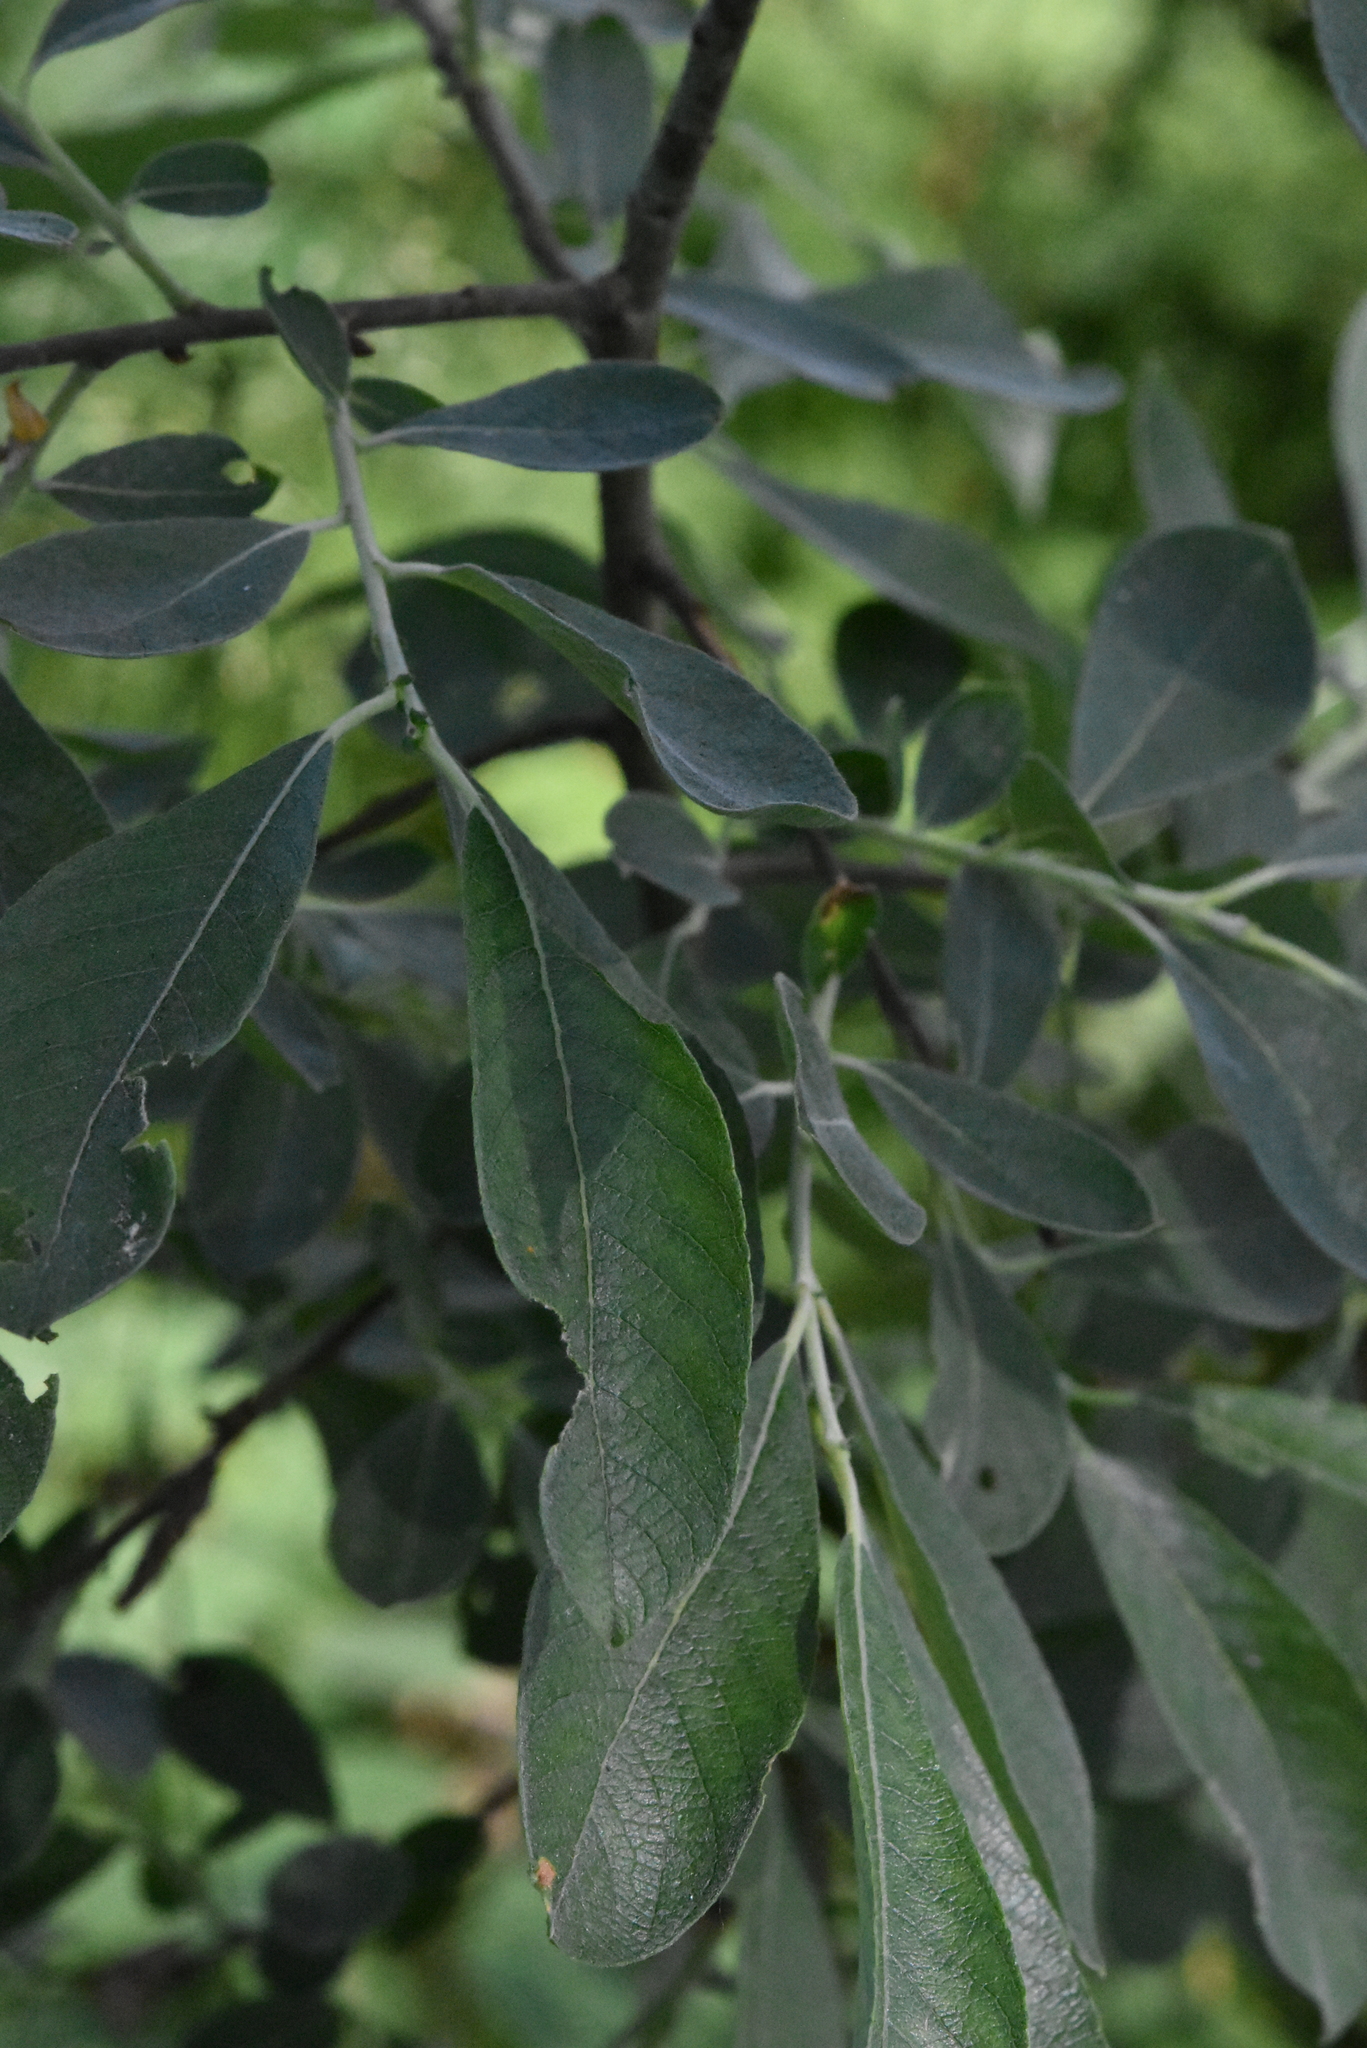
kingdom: Plantae
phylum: Tracheophyta
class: Magnoliopsida
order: Malpighiales
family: Salicaceae
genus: Salix
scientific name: Salix cinerea
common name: Common sallow
